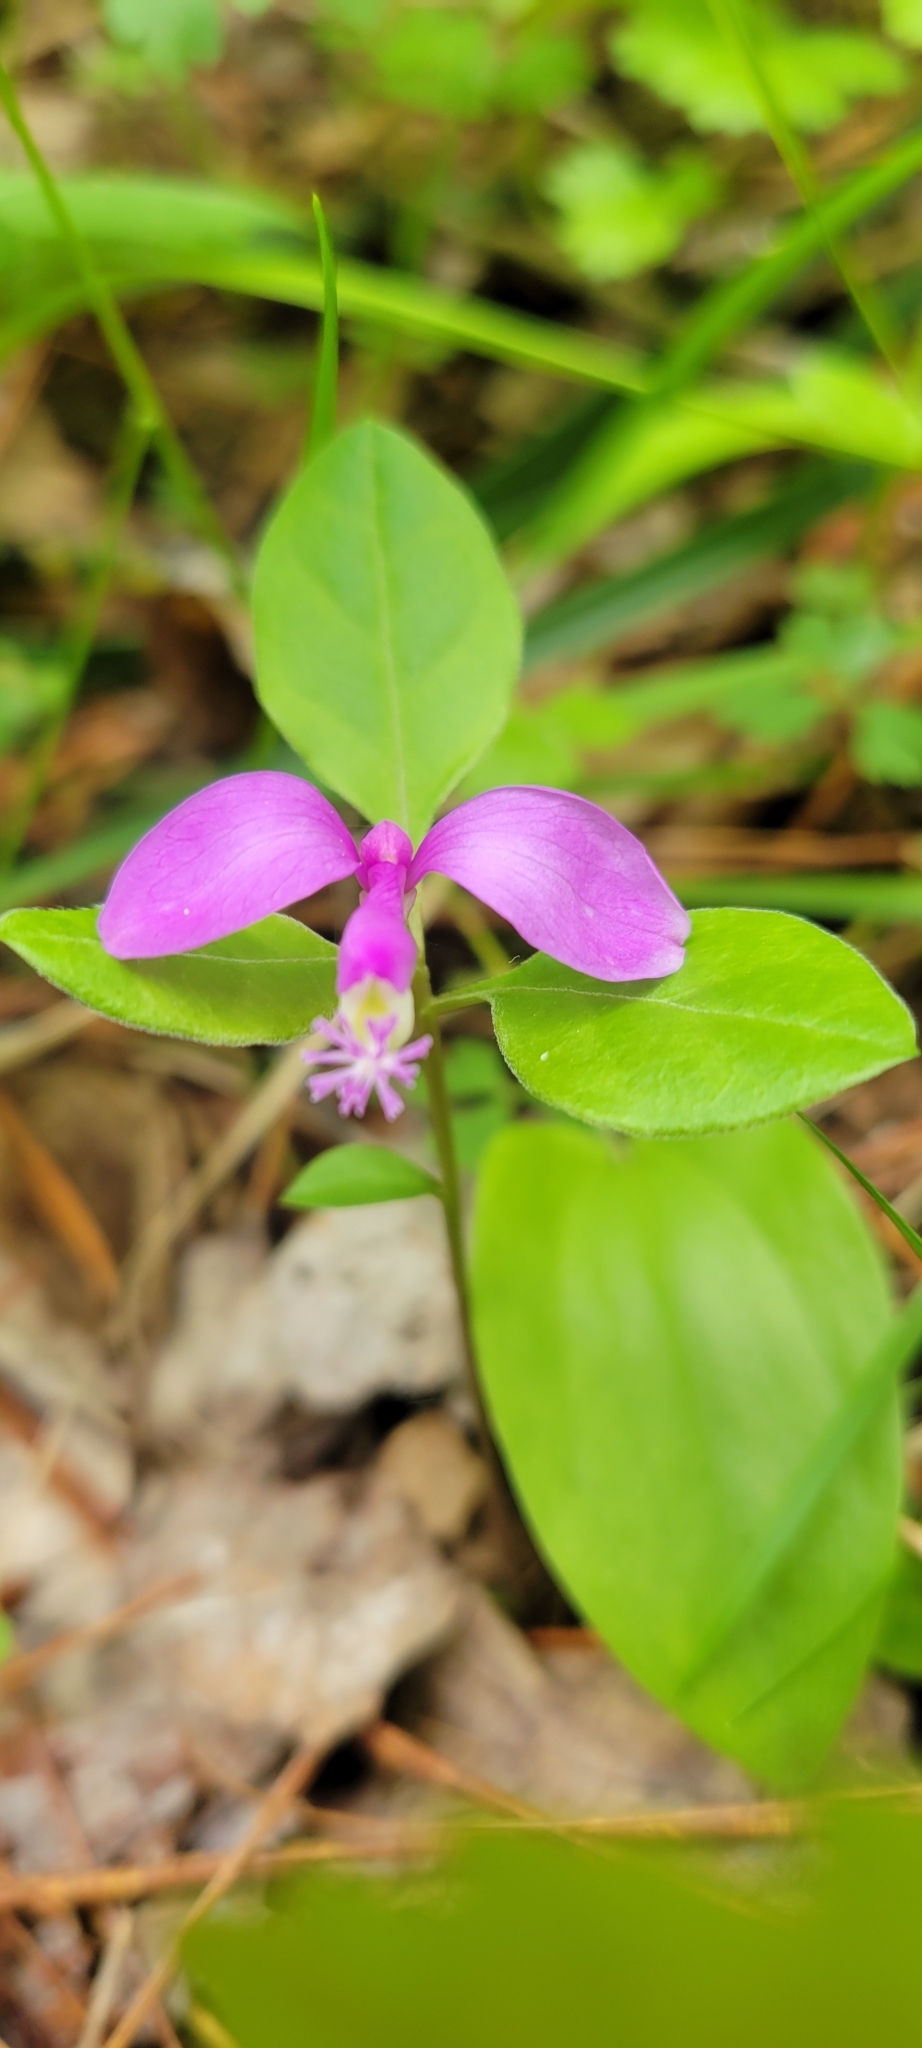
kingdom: Plantae
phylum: Tracheophyta
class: Magnoliopsida
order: Fabales
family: Polygalaceae
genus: Polygaloides
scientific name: Polygaloides paucifolia
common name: Bird-on-the-wing
